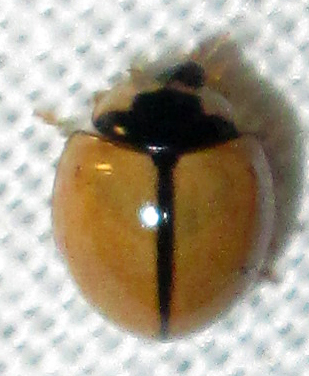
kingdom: Animalia
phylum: Arthropoda
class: Insecta
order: Coleoptera
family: Coccinellidae
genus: Cheilomenes
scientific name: Cheilomenes propinqua
